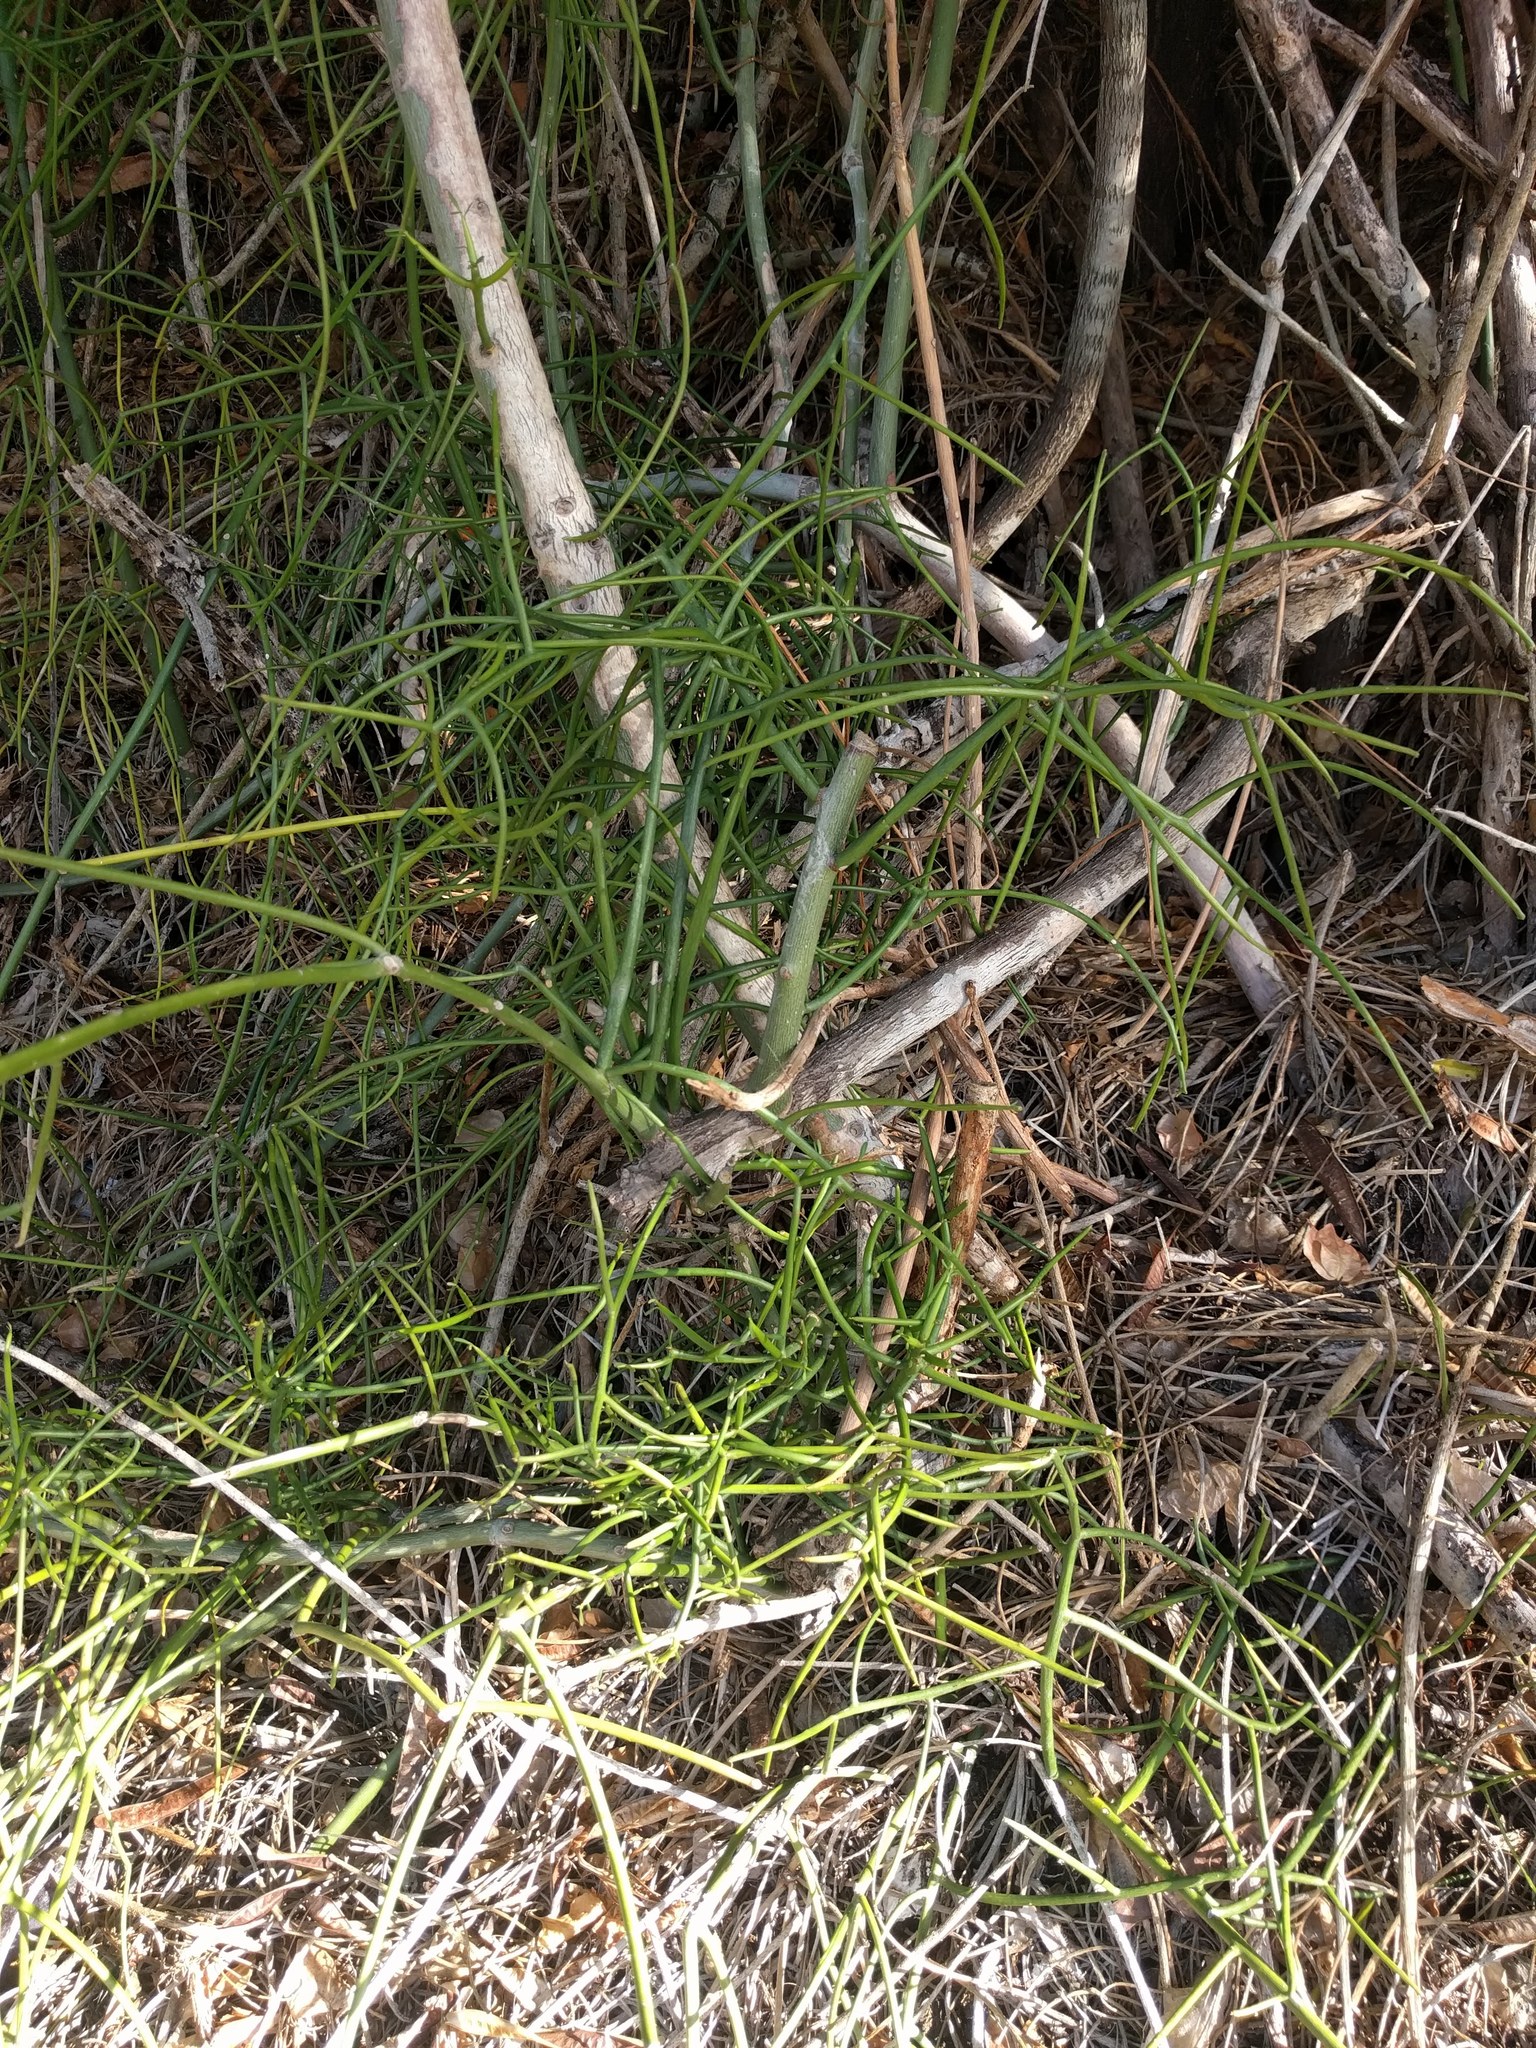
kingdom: Plantae
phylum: Tracheophyta
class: Magnoliopsida
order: Malpighiales
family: Euphorbiaceae
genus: Euphorbia
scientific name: Euphorbia tirucalli
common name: Indiantree spurge
